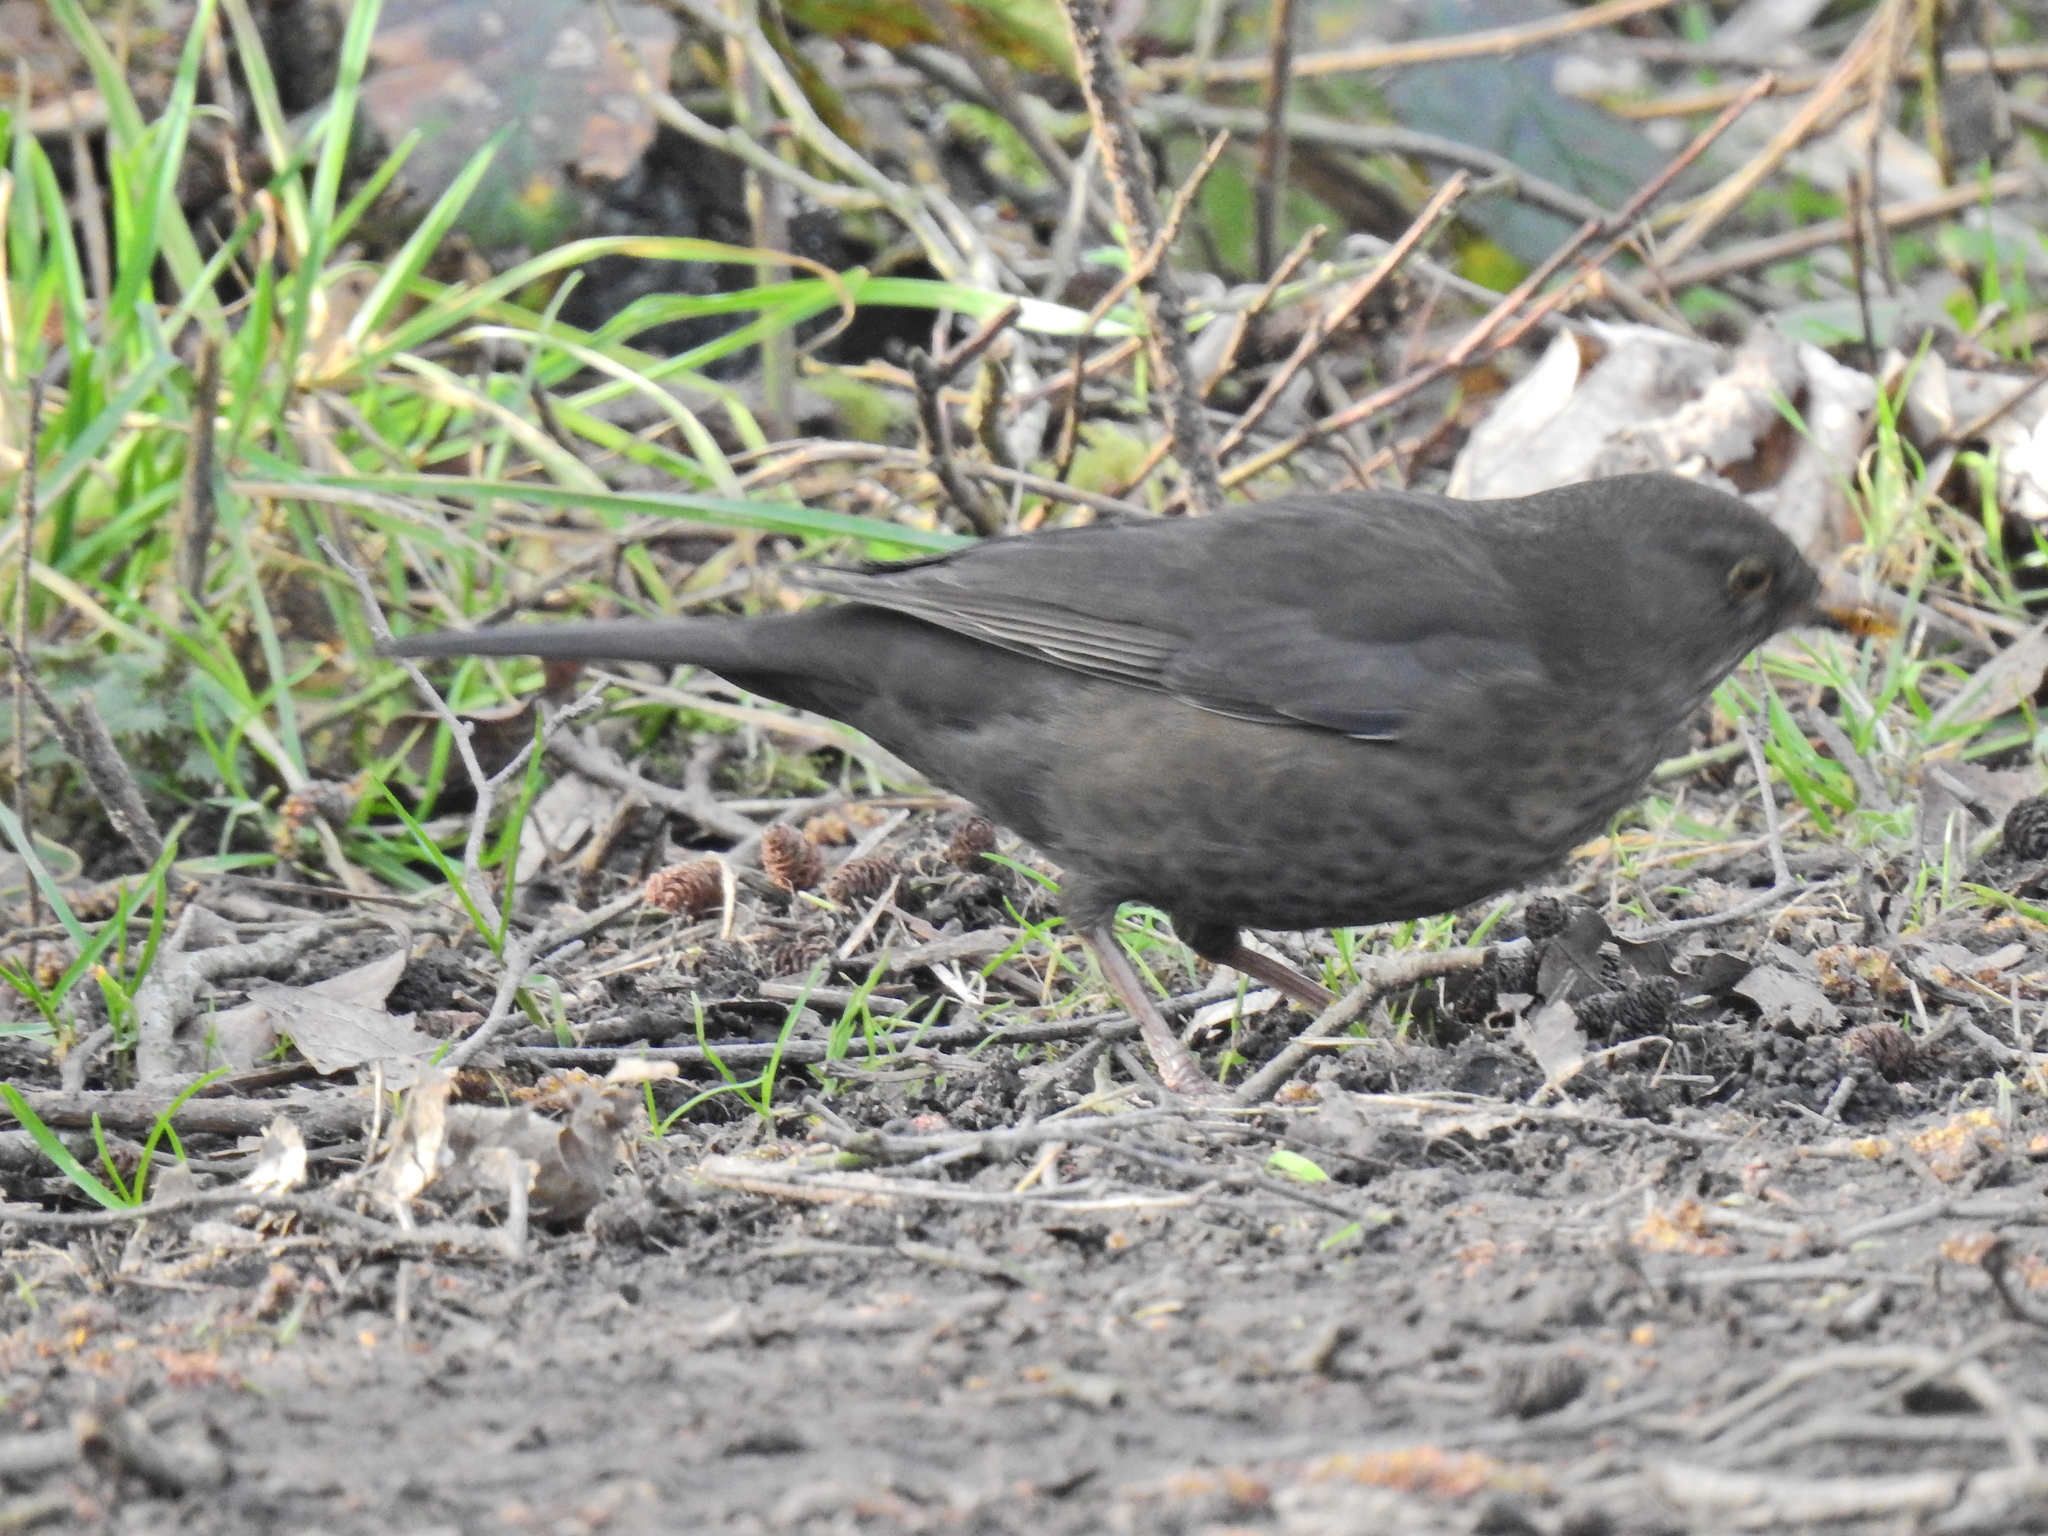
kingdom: Animalia
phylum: Chordata
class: Aves
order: Passeriformes
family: Turdidae
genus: Turdus
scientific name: Turdus merula
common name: Common blackbird
